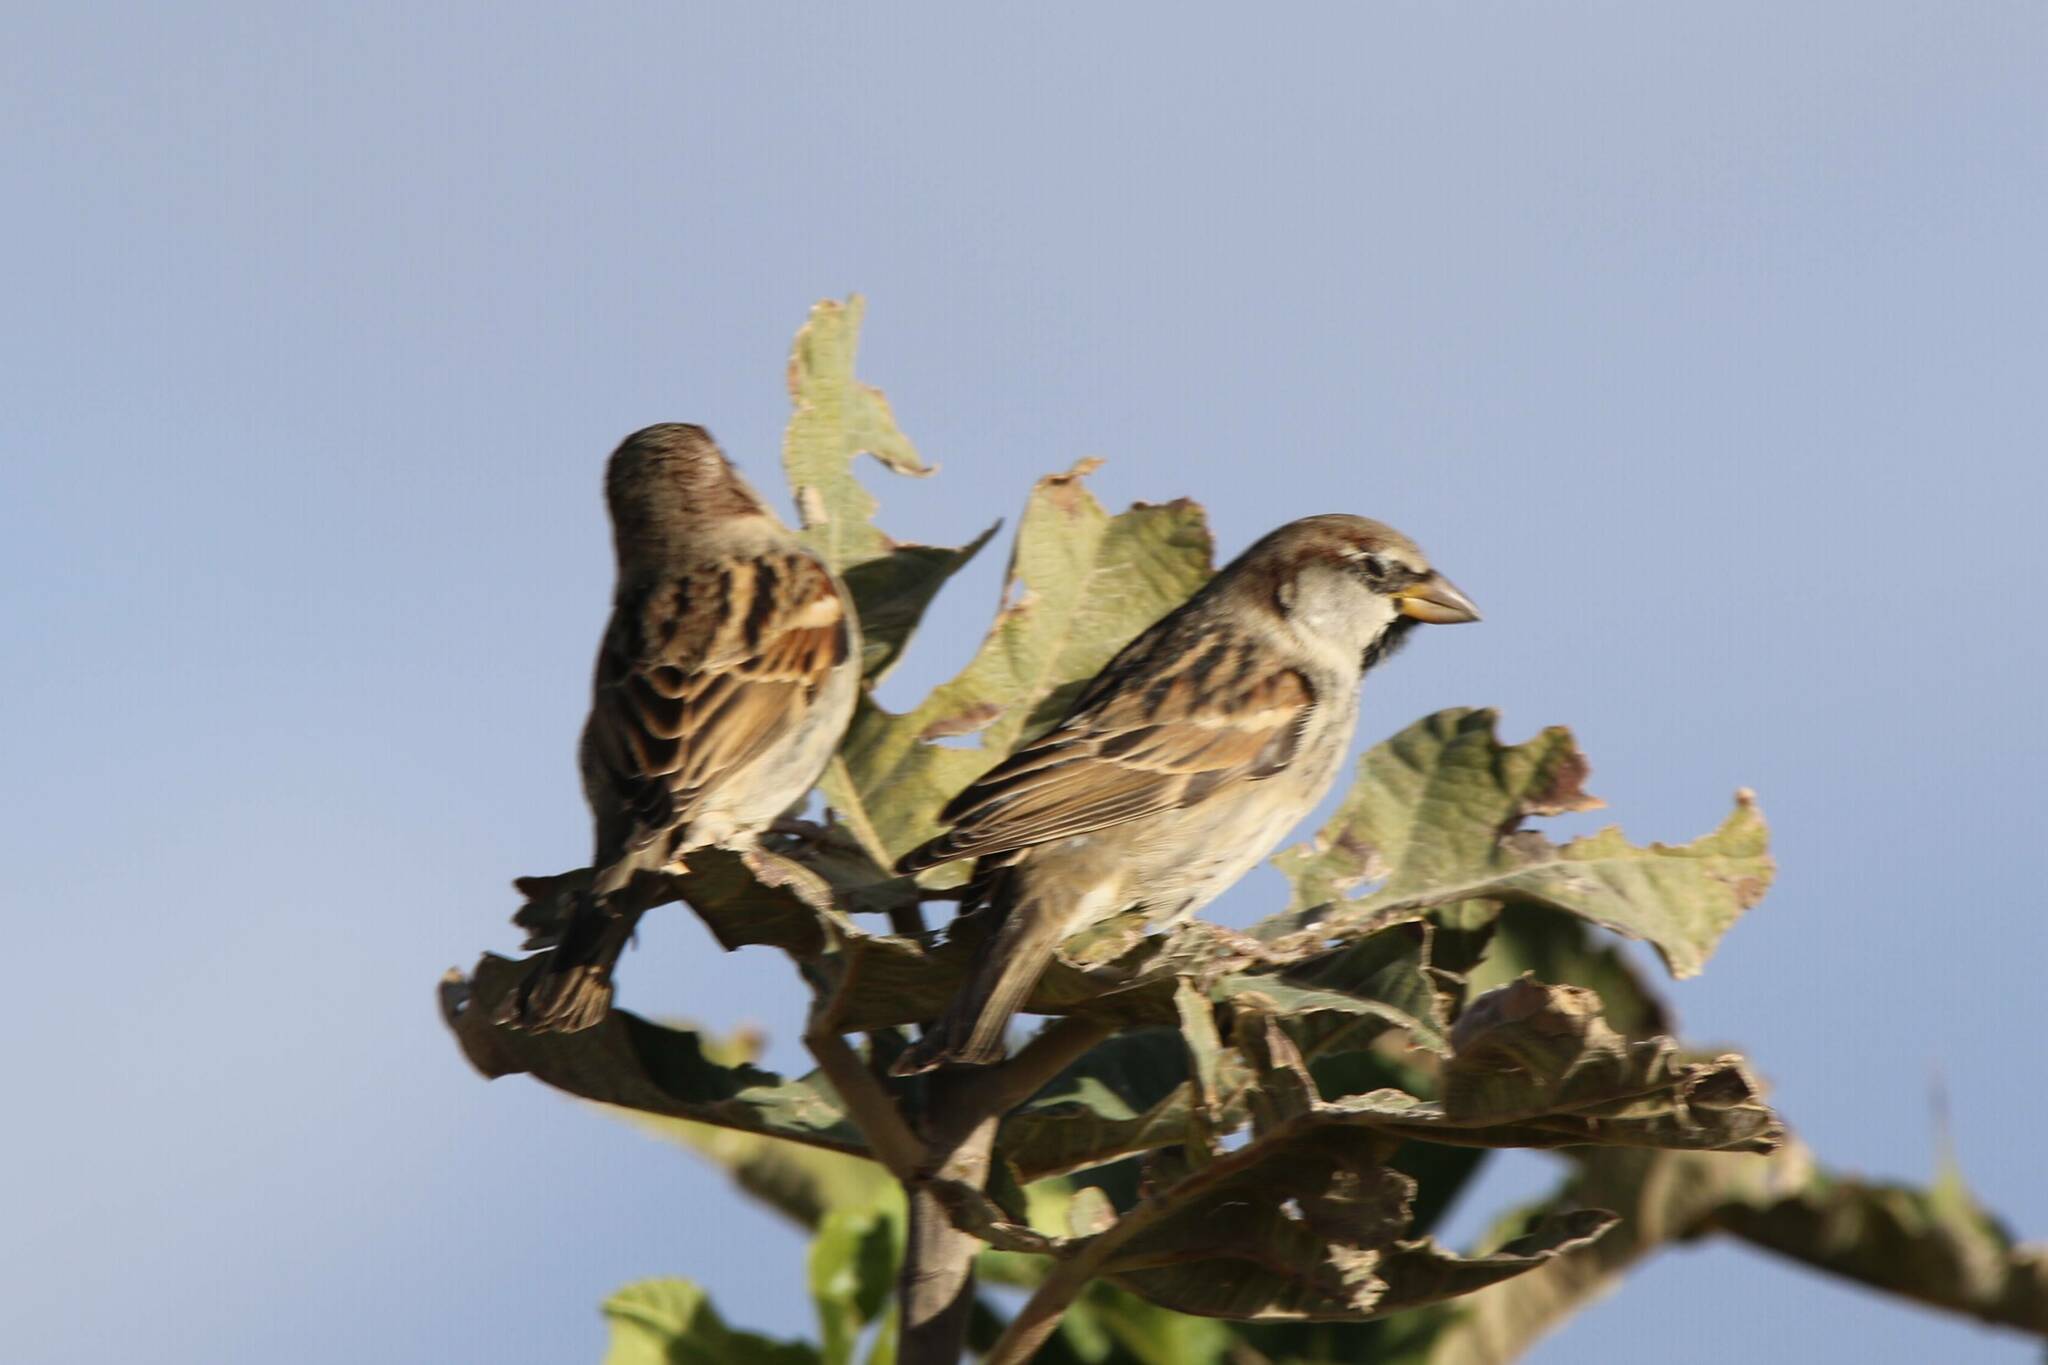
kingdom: Animalia
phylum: Chordata
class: Aves
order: Passeriformes
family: Passeridae
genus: Passer
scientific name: Passer hispaniolensis
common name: Spanish sparrow
